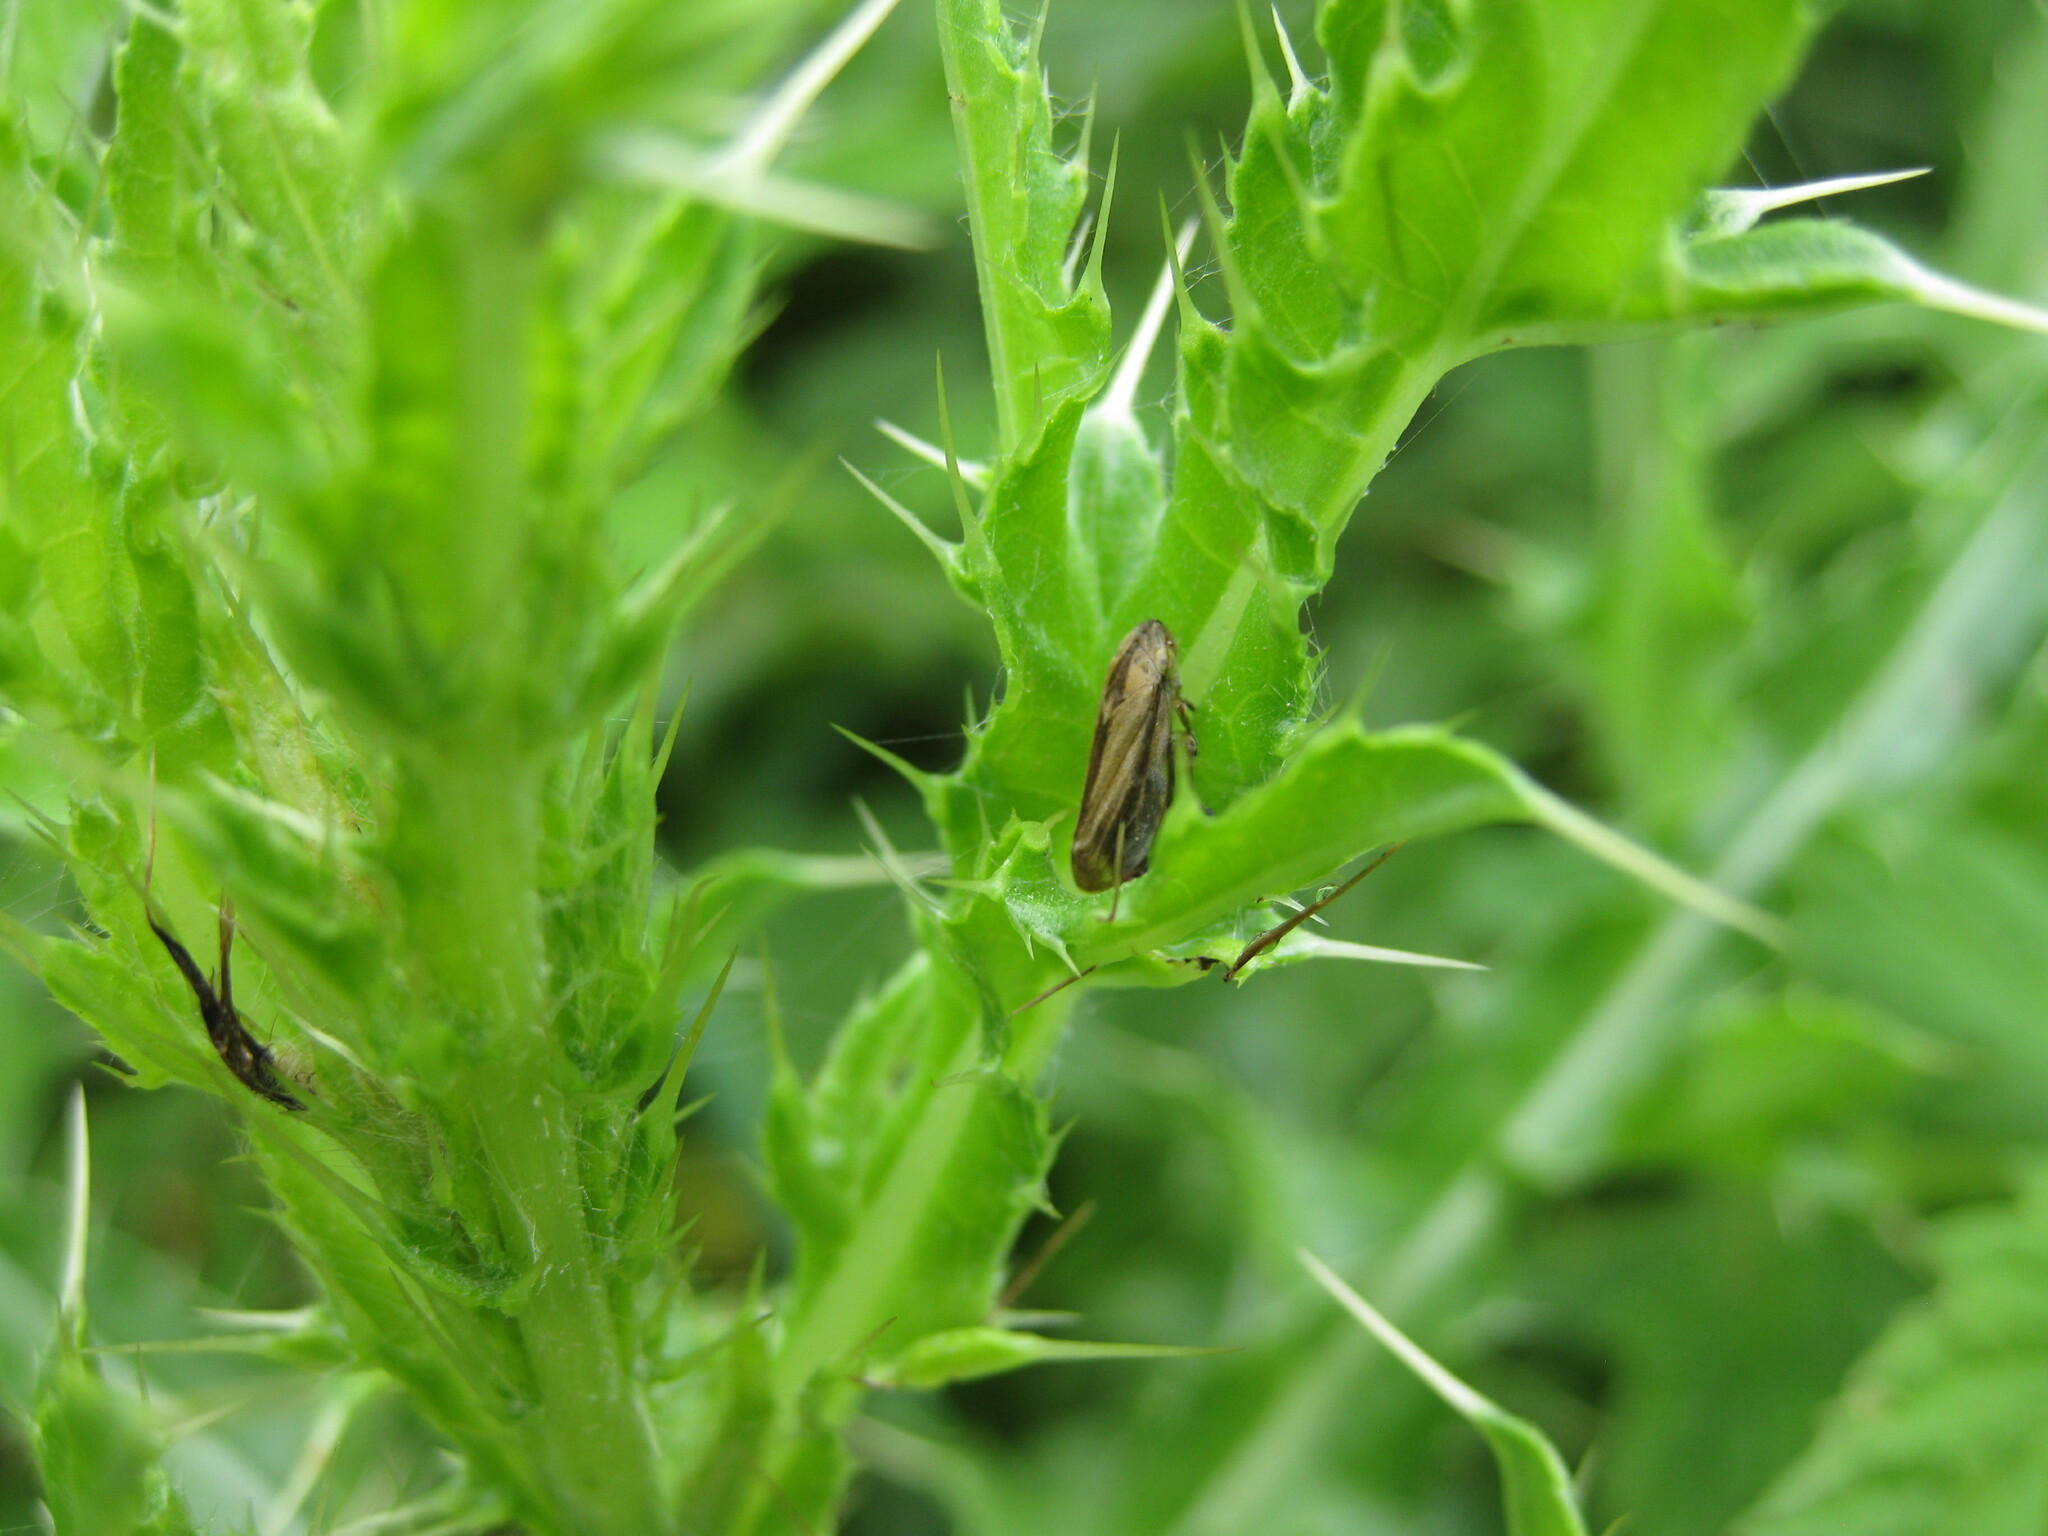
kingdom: Animalia
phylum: Arthropoda
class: Insecta
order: Hemiptera
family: Aphrophoridae
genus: Philaenus
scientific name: Philaenus spumarius
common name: Meadow spittlebug
